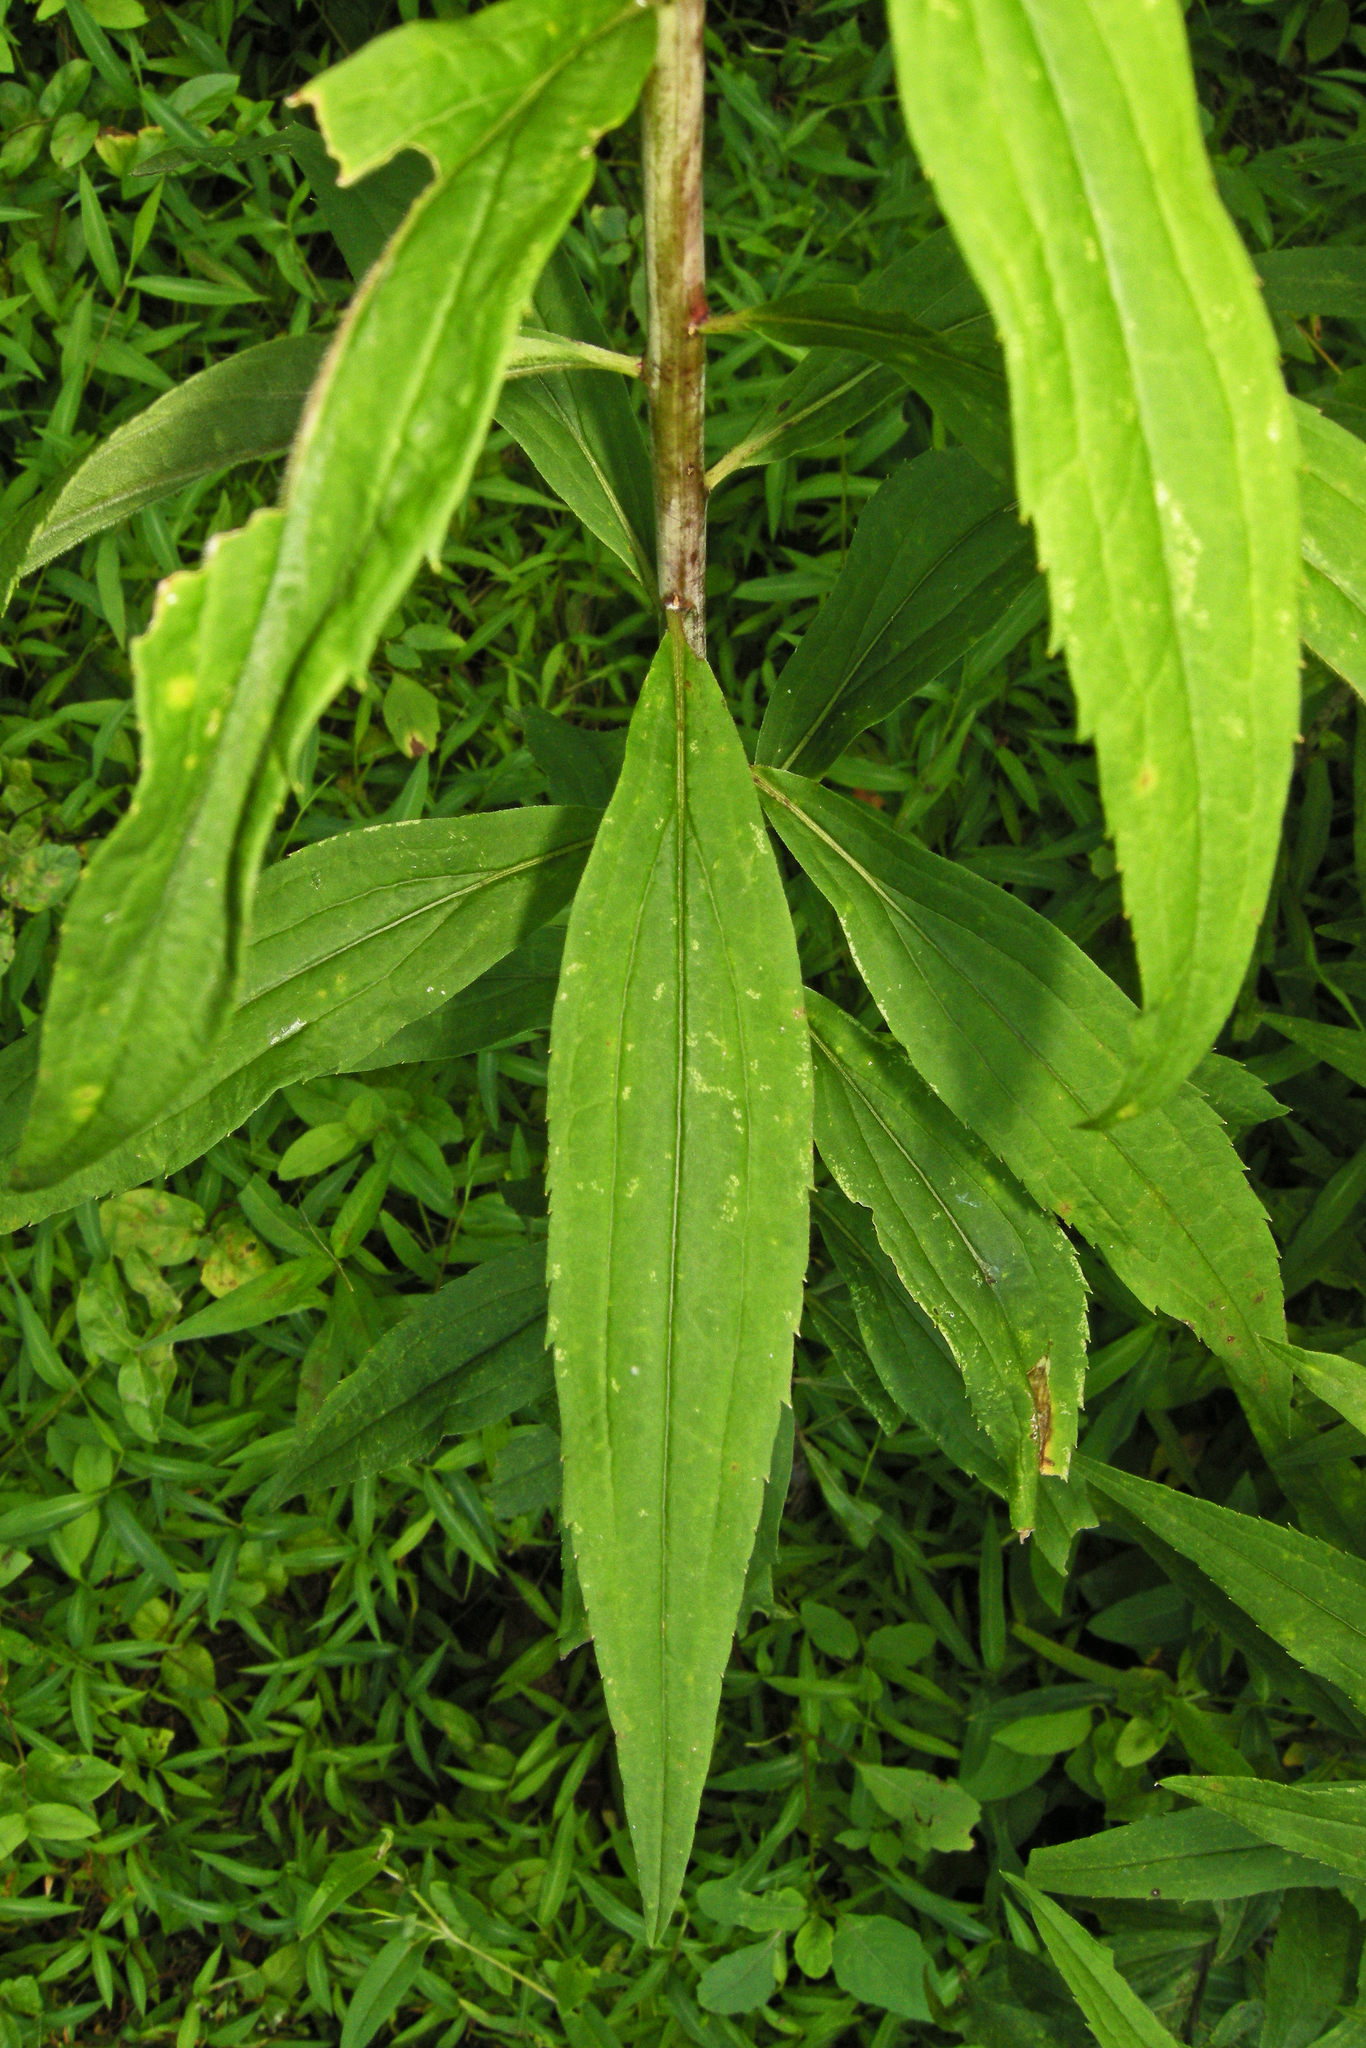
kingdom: Plantae
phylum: Tracheophyta
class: Magnoliopsida
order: Asterales
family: Asteraceae
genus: Solidago
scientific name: Solidago gigantea
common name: Giant goldenrod
